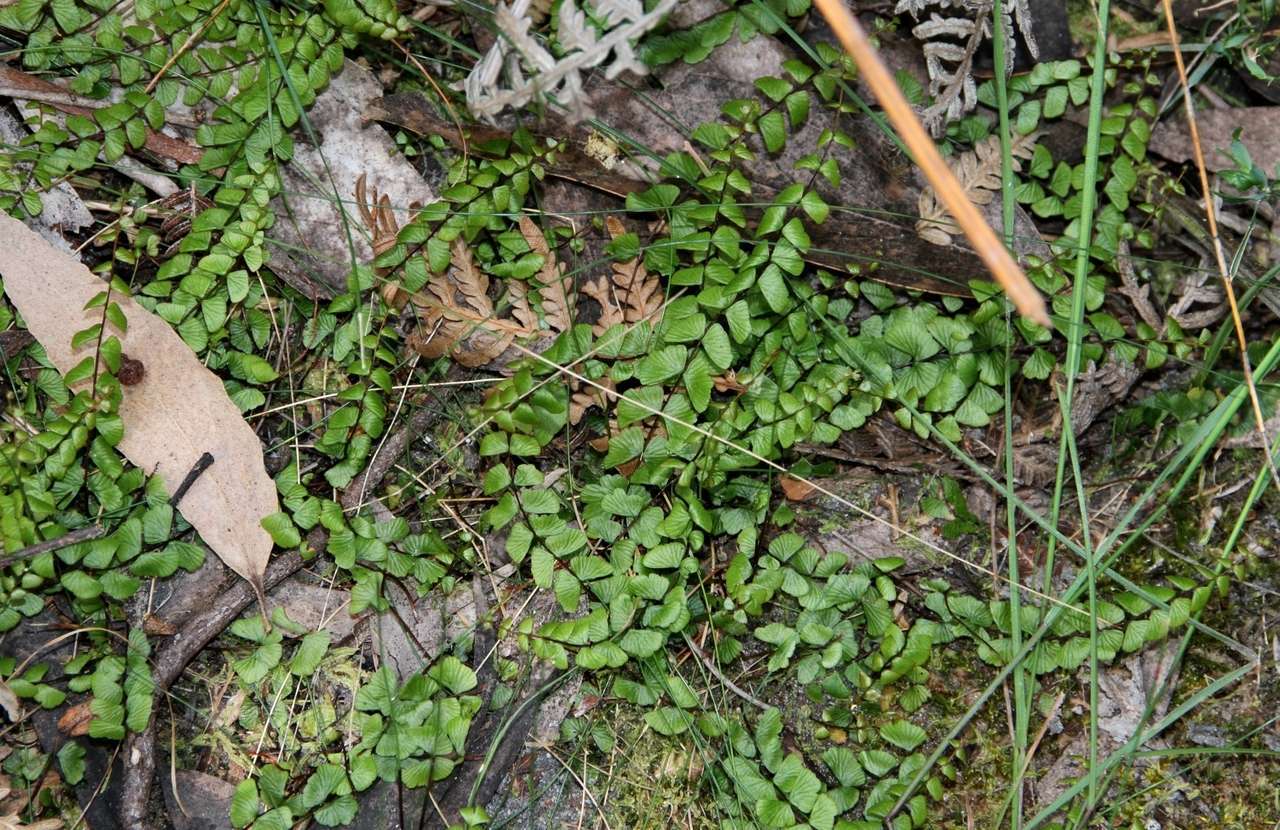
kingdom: Plantae
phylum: Tracheophyta
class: Polypodiopsida
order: Polypodiales
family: Lindsaeaceae
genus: Lindsaea
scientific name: Lindsaea linearis
